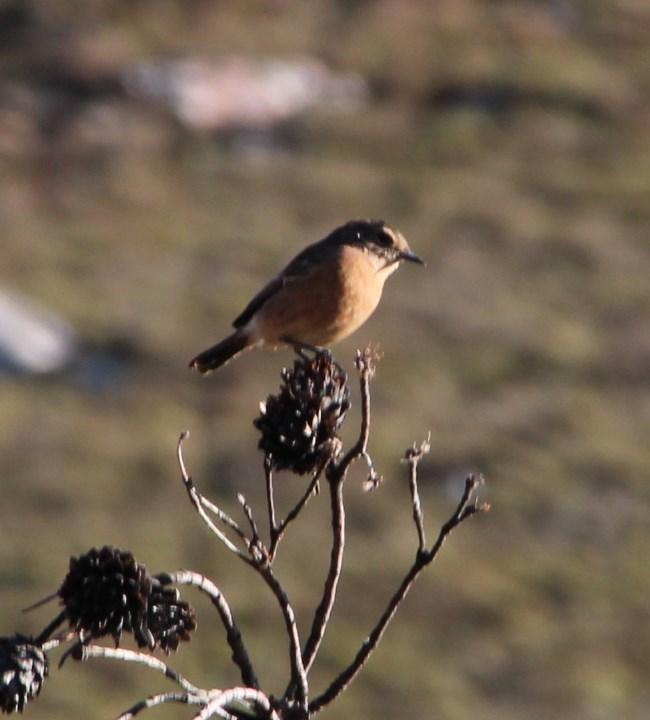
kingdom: Animalia
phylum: Chordata
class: Aves
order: Passeriformes
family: Muscicapidae
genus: Saxicola
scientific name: Saxicola torquatus
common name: African stonechat
